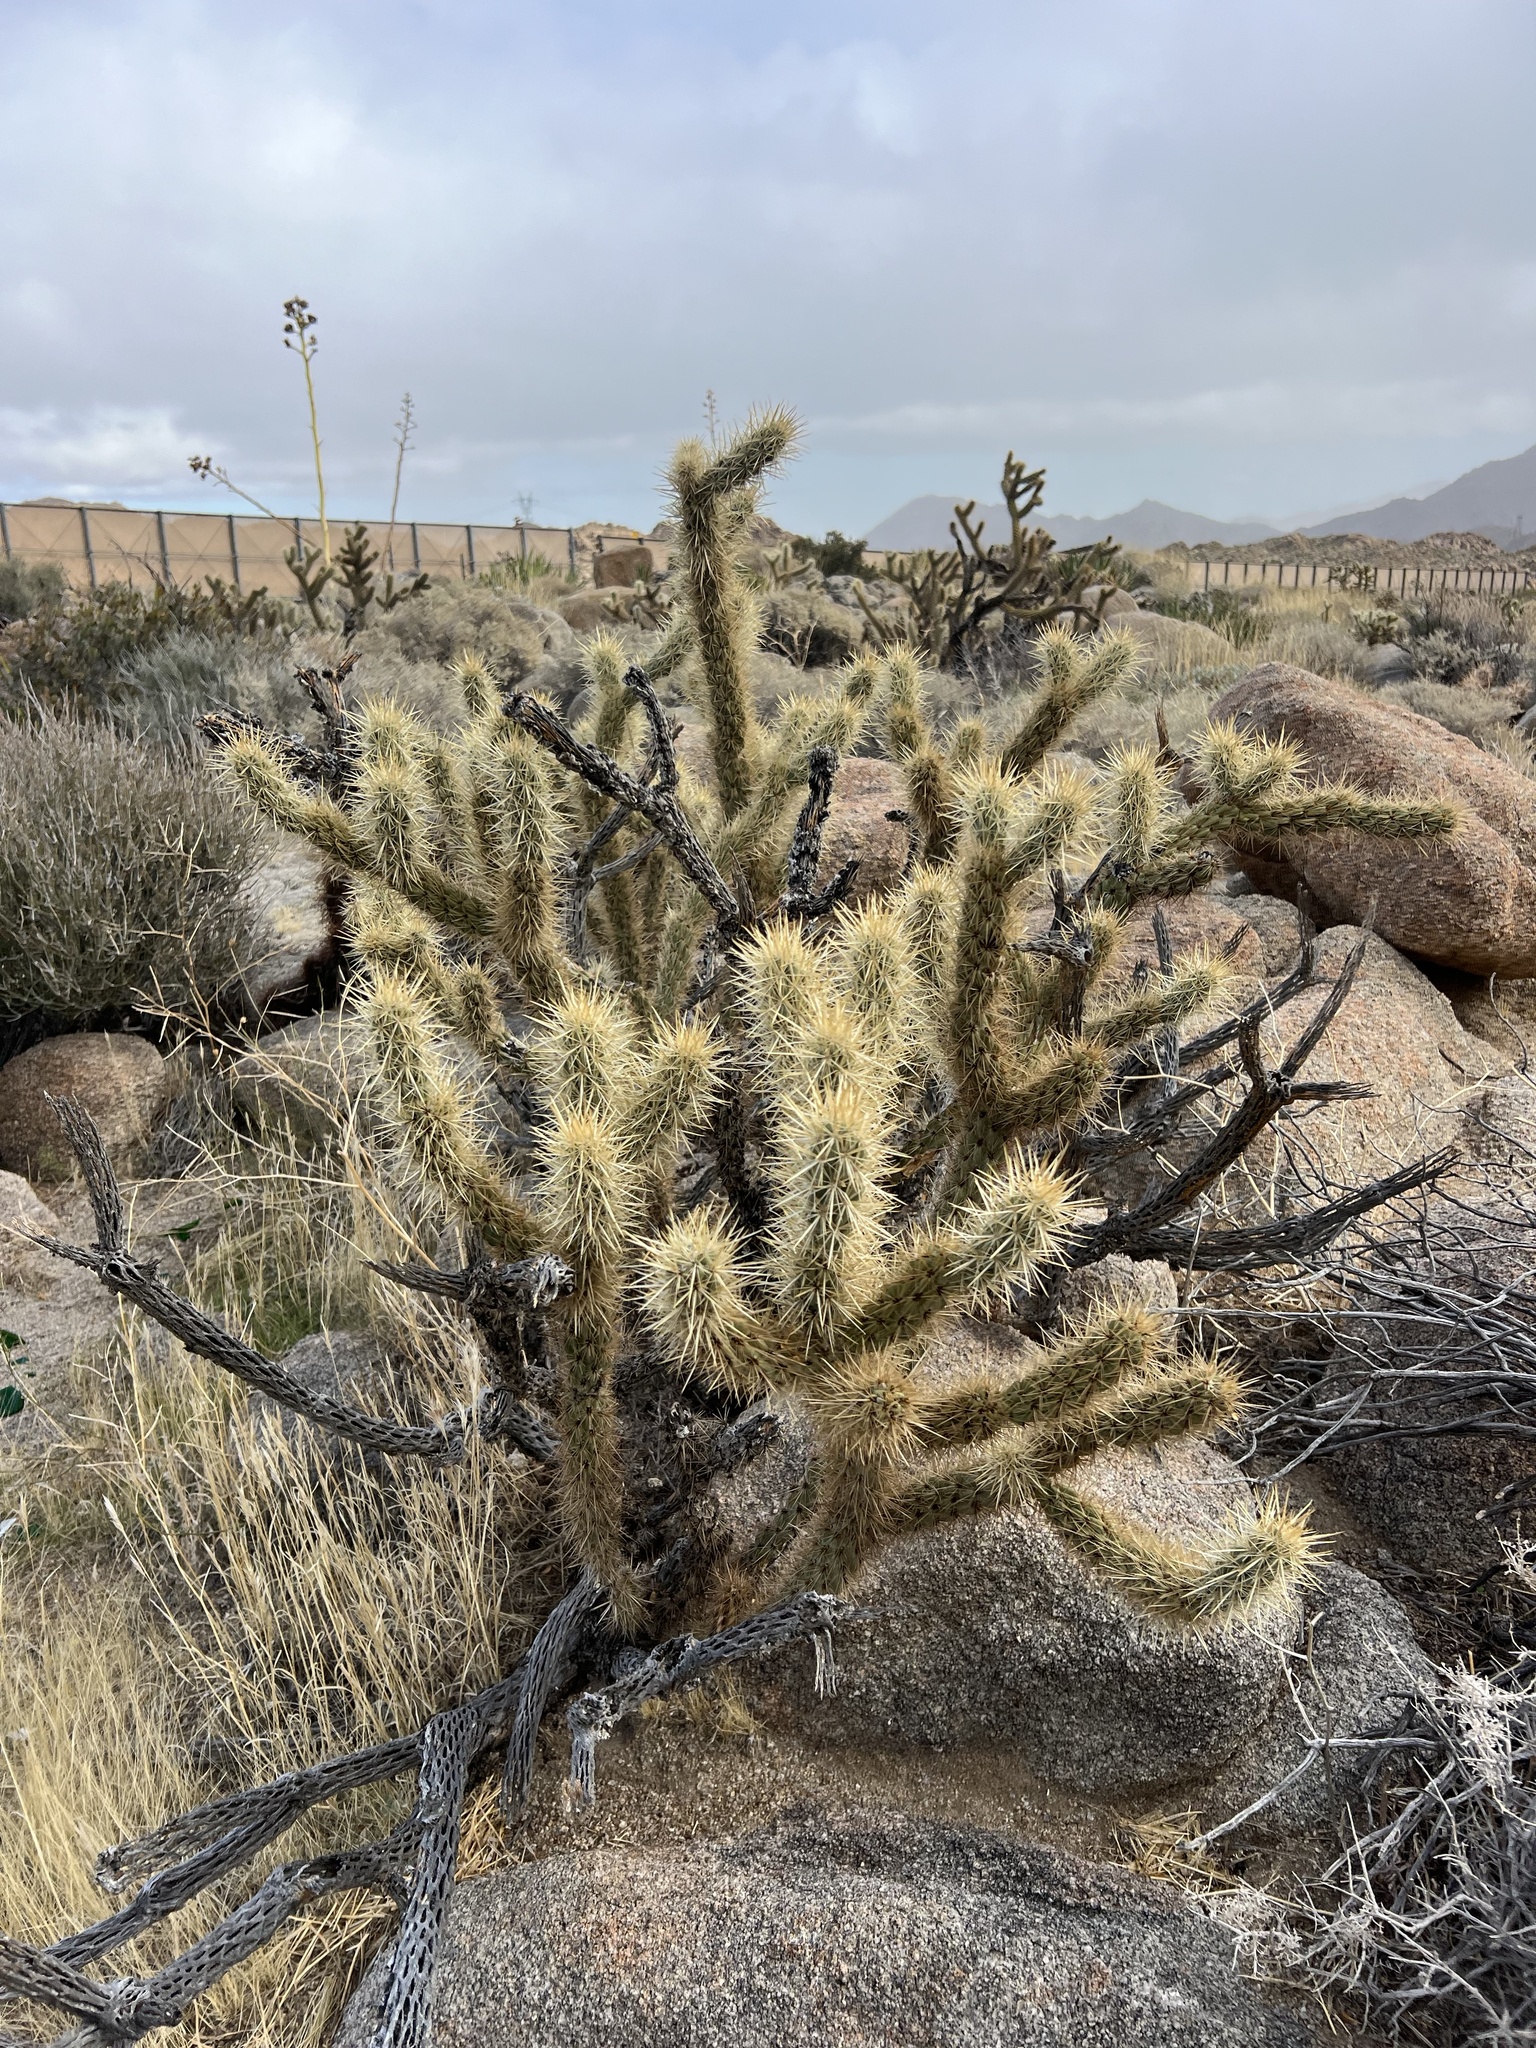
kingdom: Plantae
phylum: Tracheophyta
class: Magnoliopsida
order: Caryophyllales
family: Cactaceae
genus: Cylindropuntia
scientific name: Cylindropuntia ganderi
